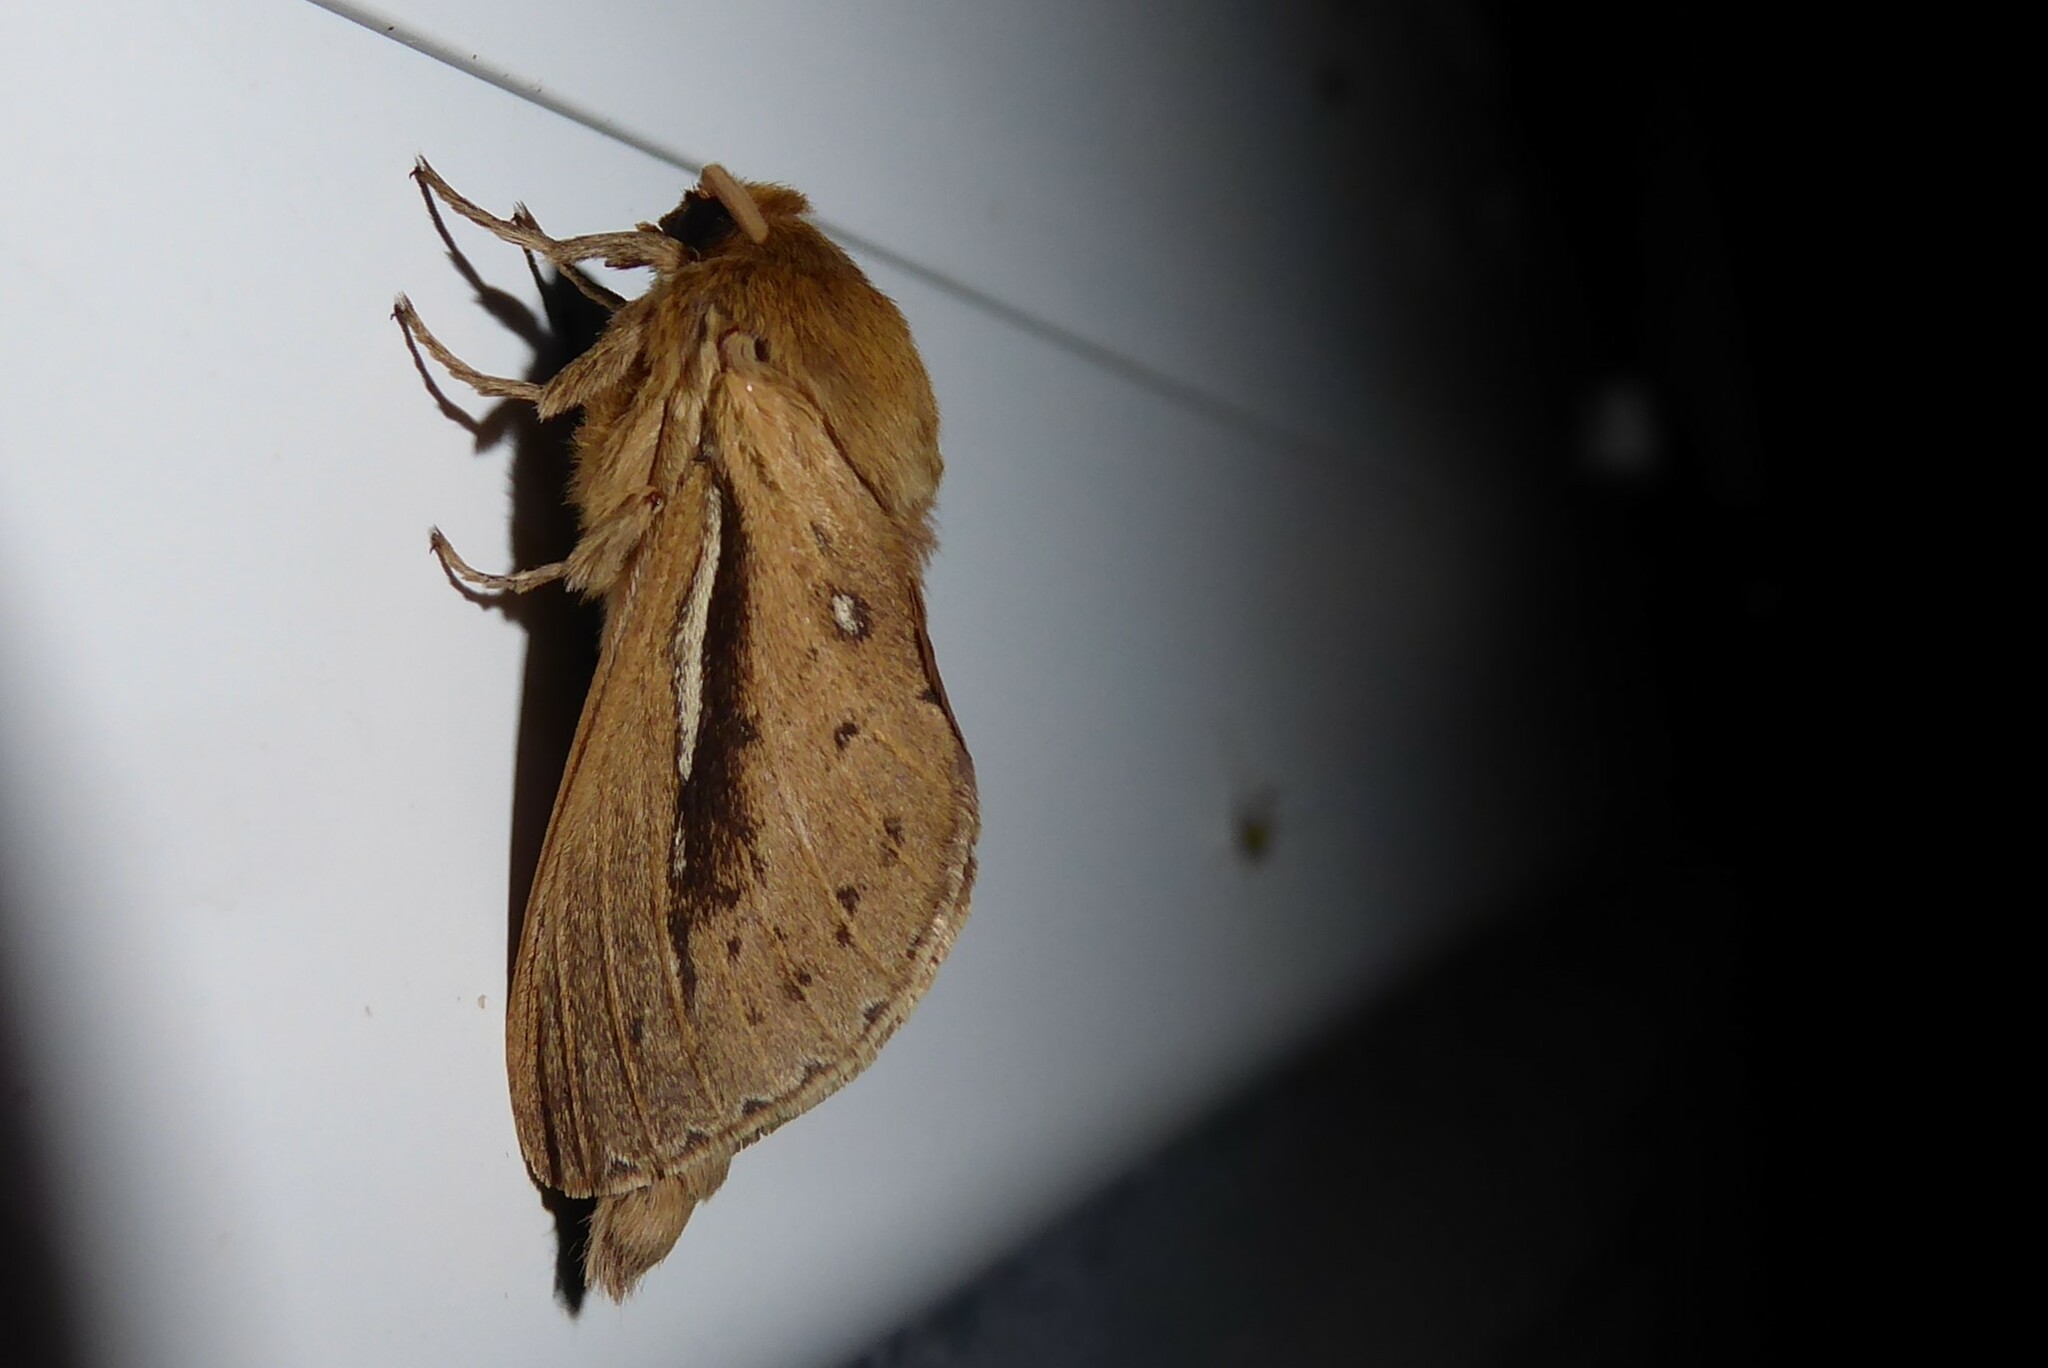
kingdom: Animalia
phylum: Arthropoda
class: Insecta
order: Lepidoptera
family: Hepialidae
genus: Wiseana
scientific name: Wiseana umbraculatus
